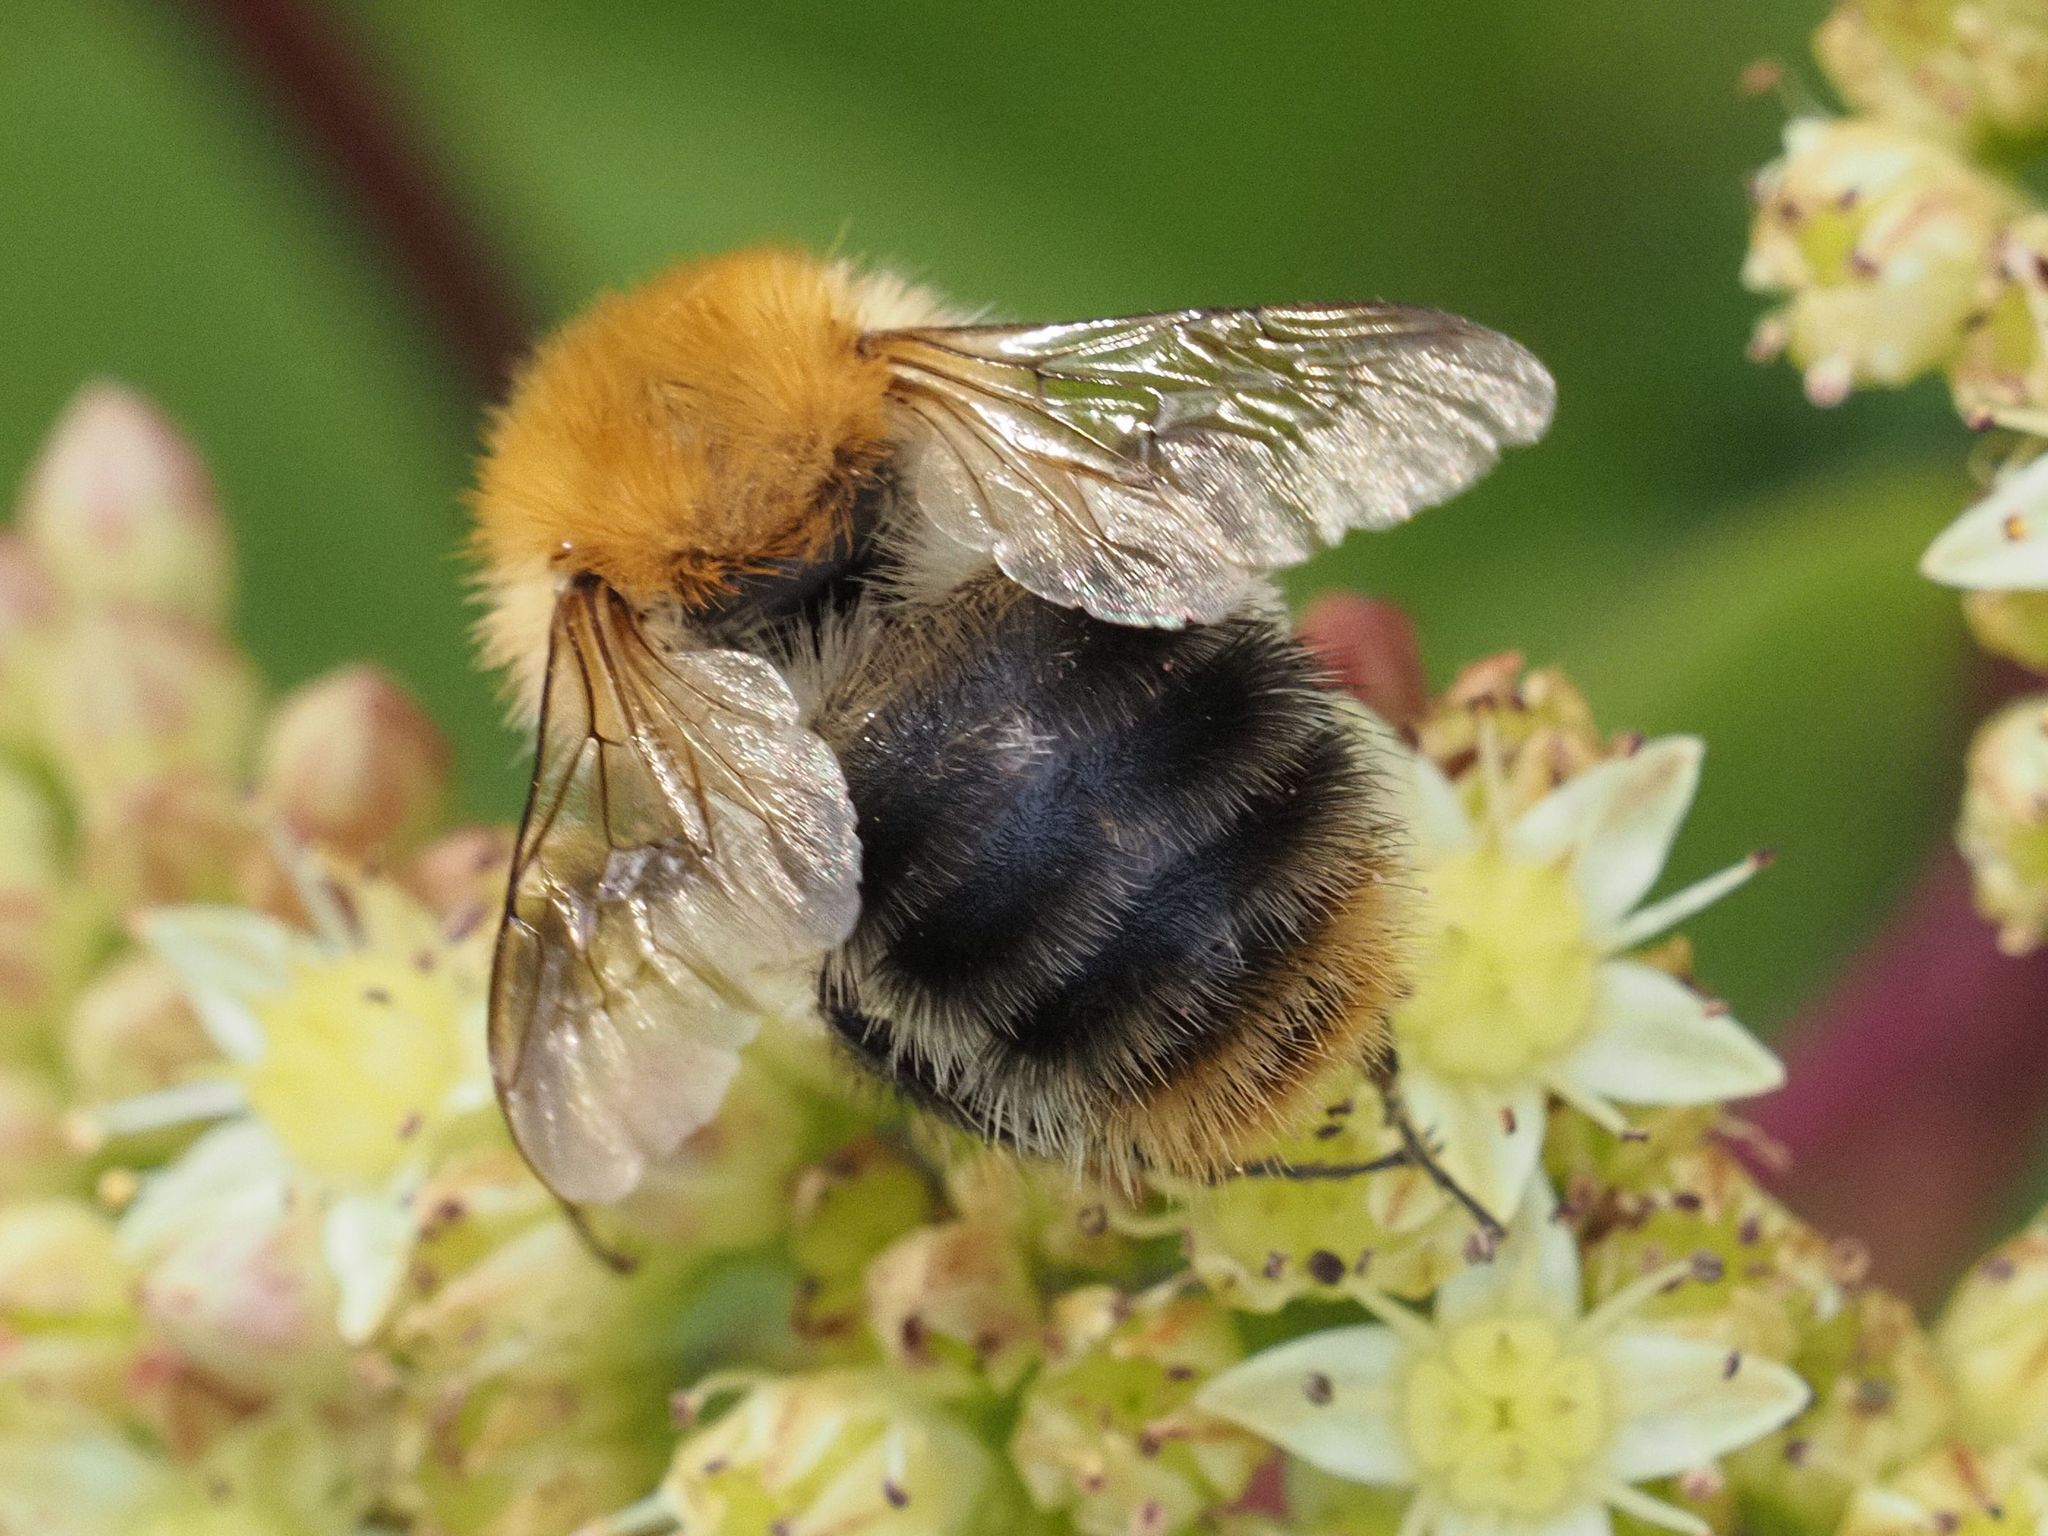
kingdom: Animalia
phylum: Arthropoda
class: Insecta
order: Hymenoptera
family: Apidae
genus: Bombus
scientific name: Bombus pascuorum
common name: Common carder bee
